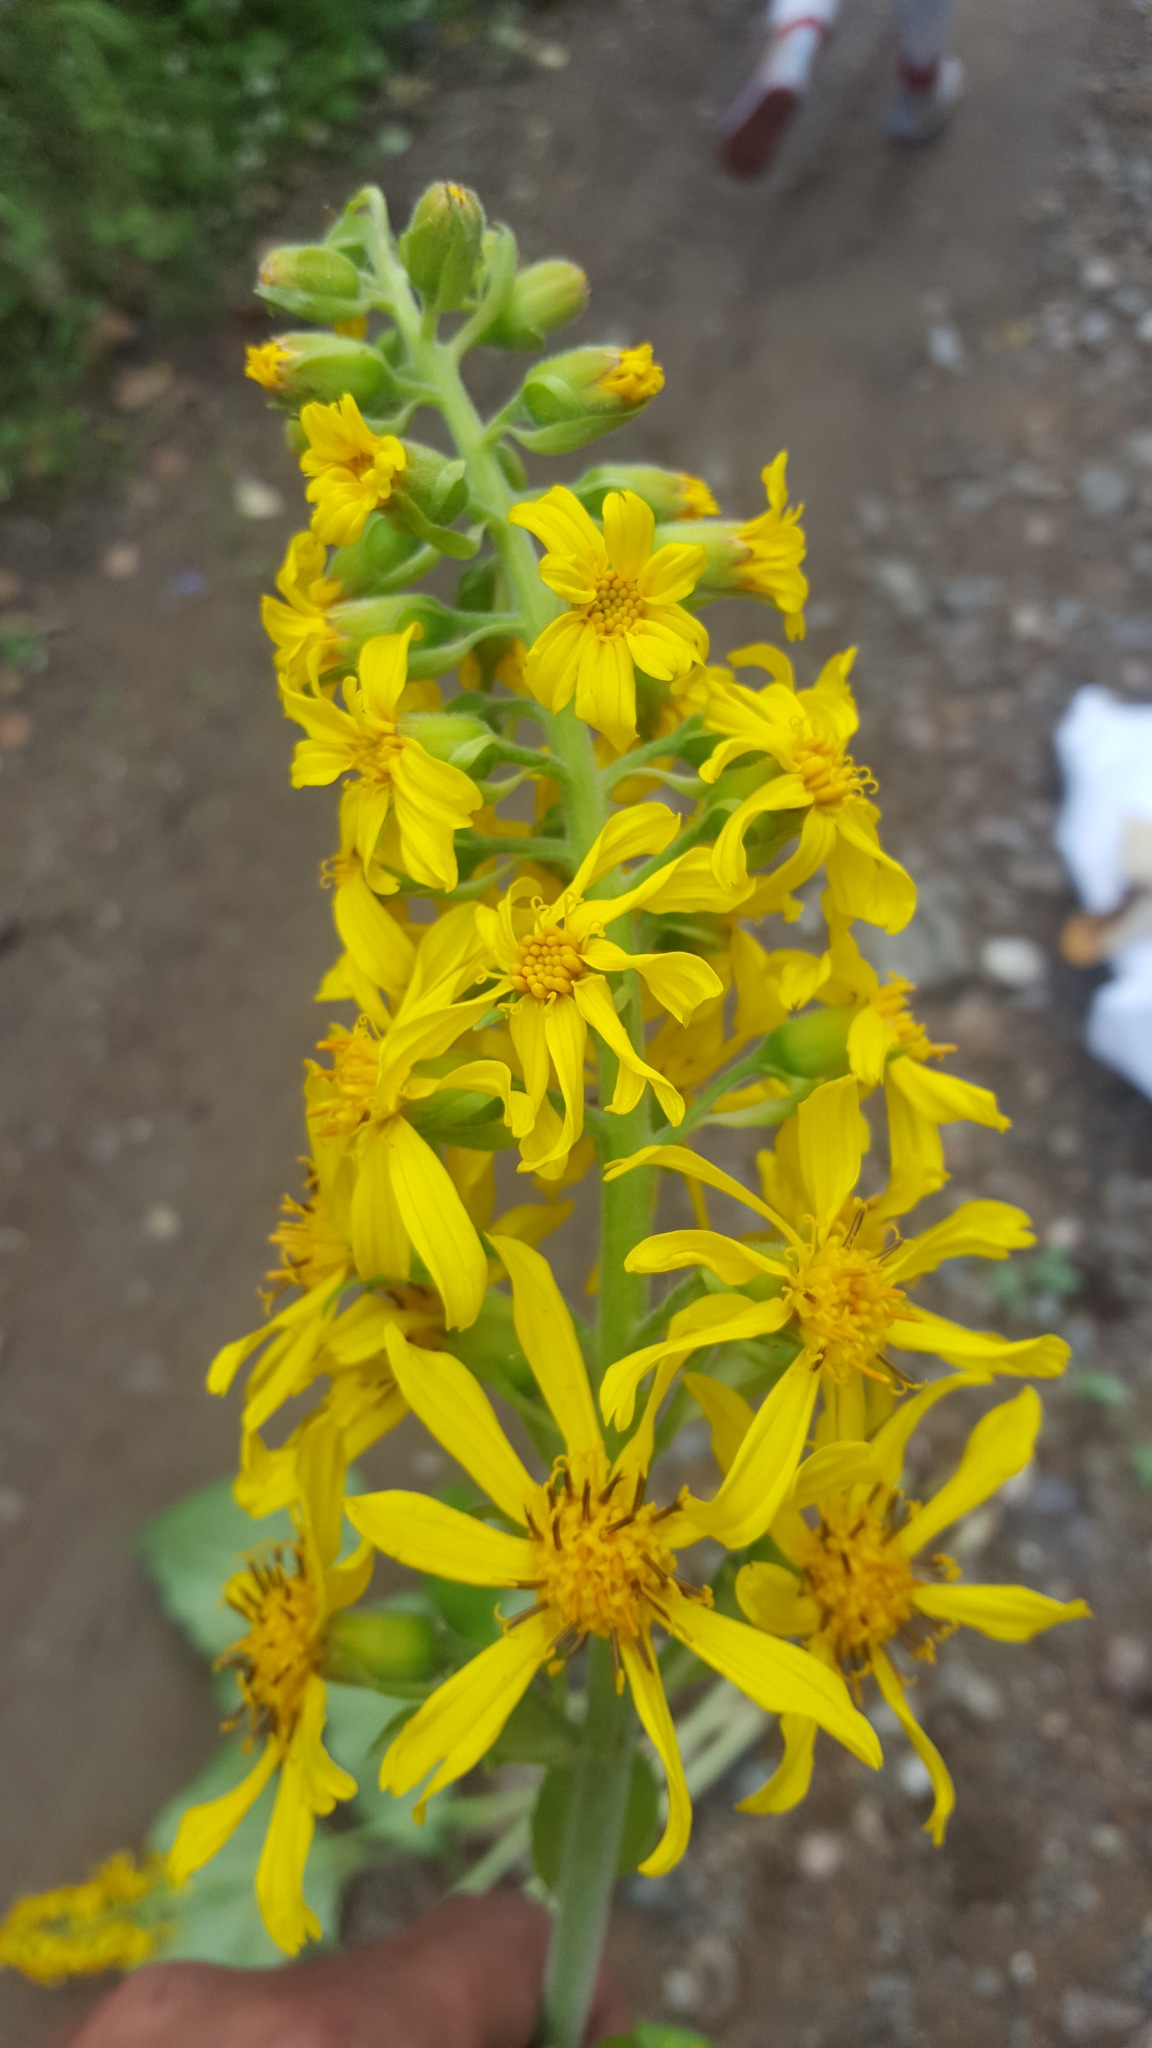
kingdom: Plantae
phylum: Tracheophyta
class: Magnoliopsida
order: Asterales
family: Asteraceae
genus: Ligularia
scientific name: Ligularia sibirica
